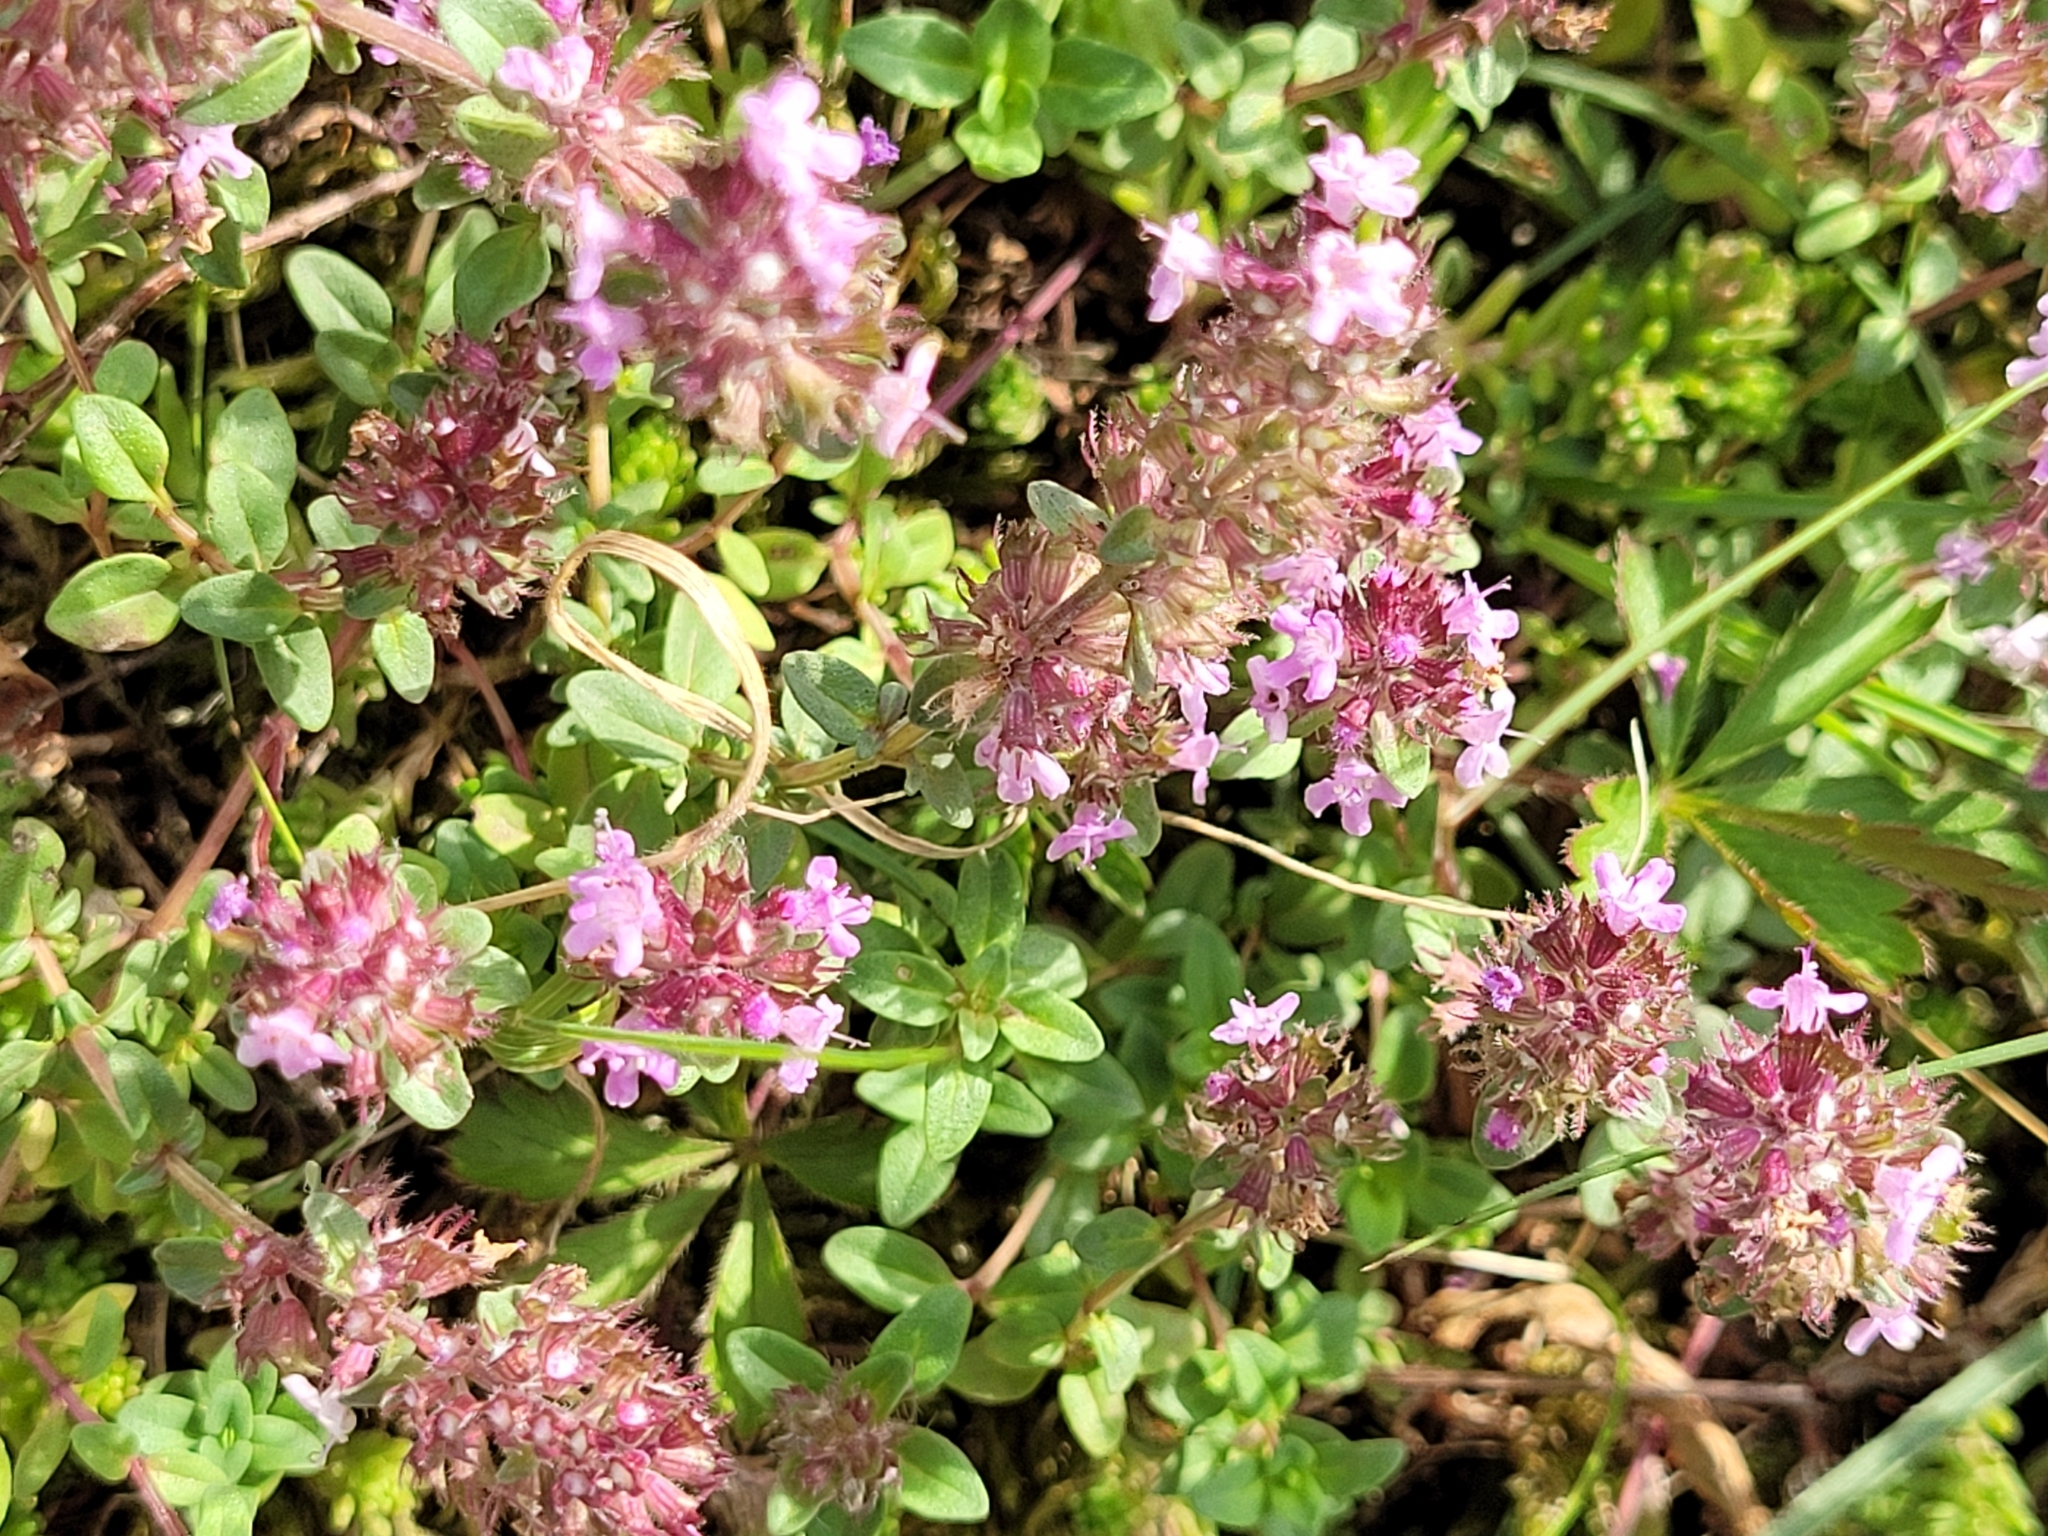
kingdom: Plantae
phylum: Tracheophyta
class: Magnoliopsida
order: Lamiales
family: Lamiaceae
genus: Thymus
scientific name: Thymus pulegioides
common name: Large thyme
